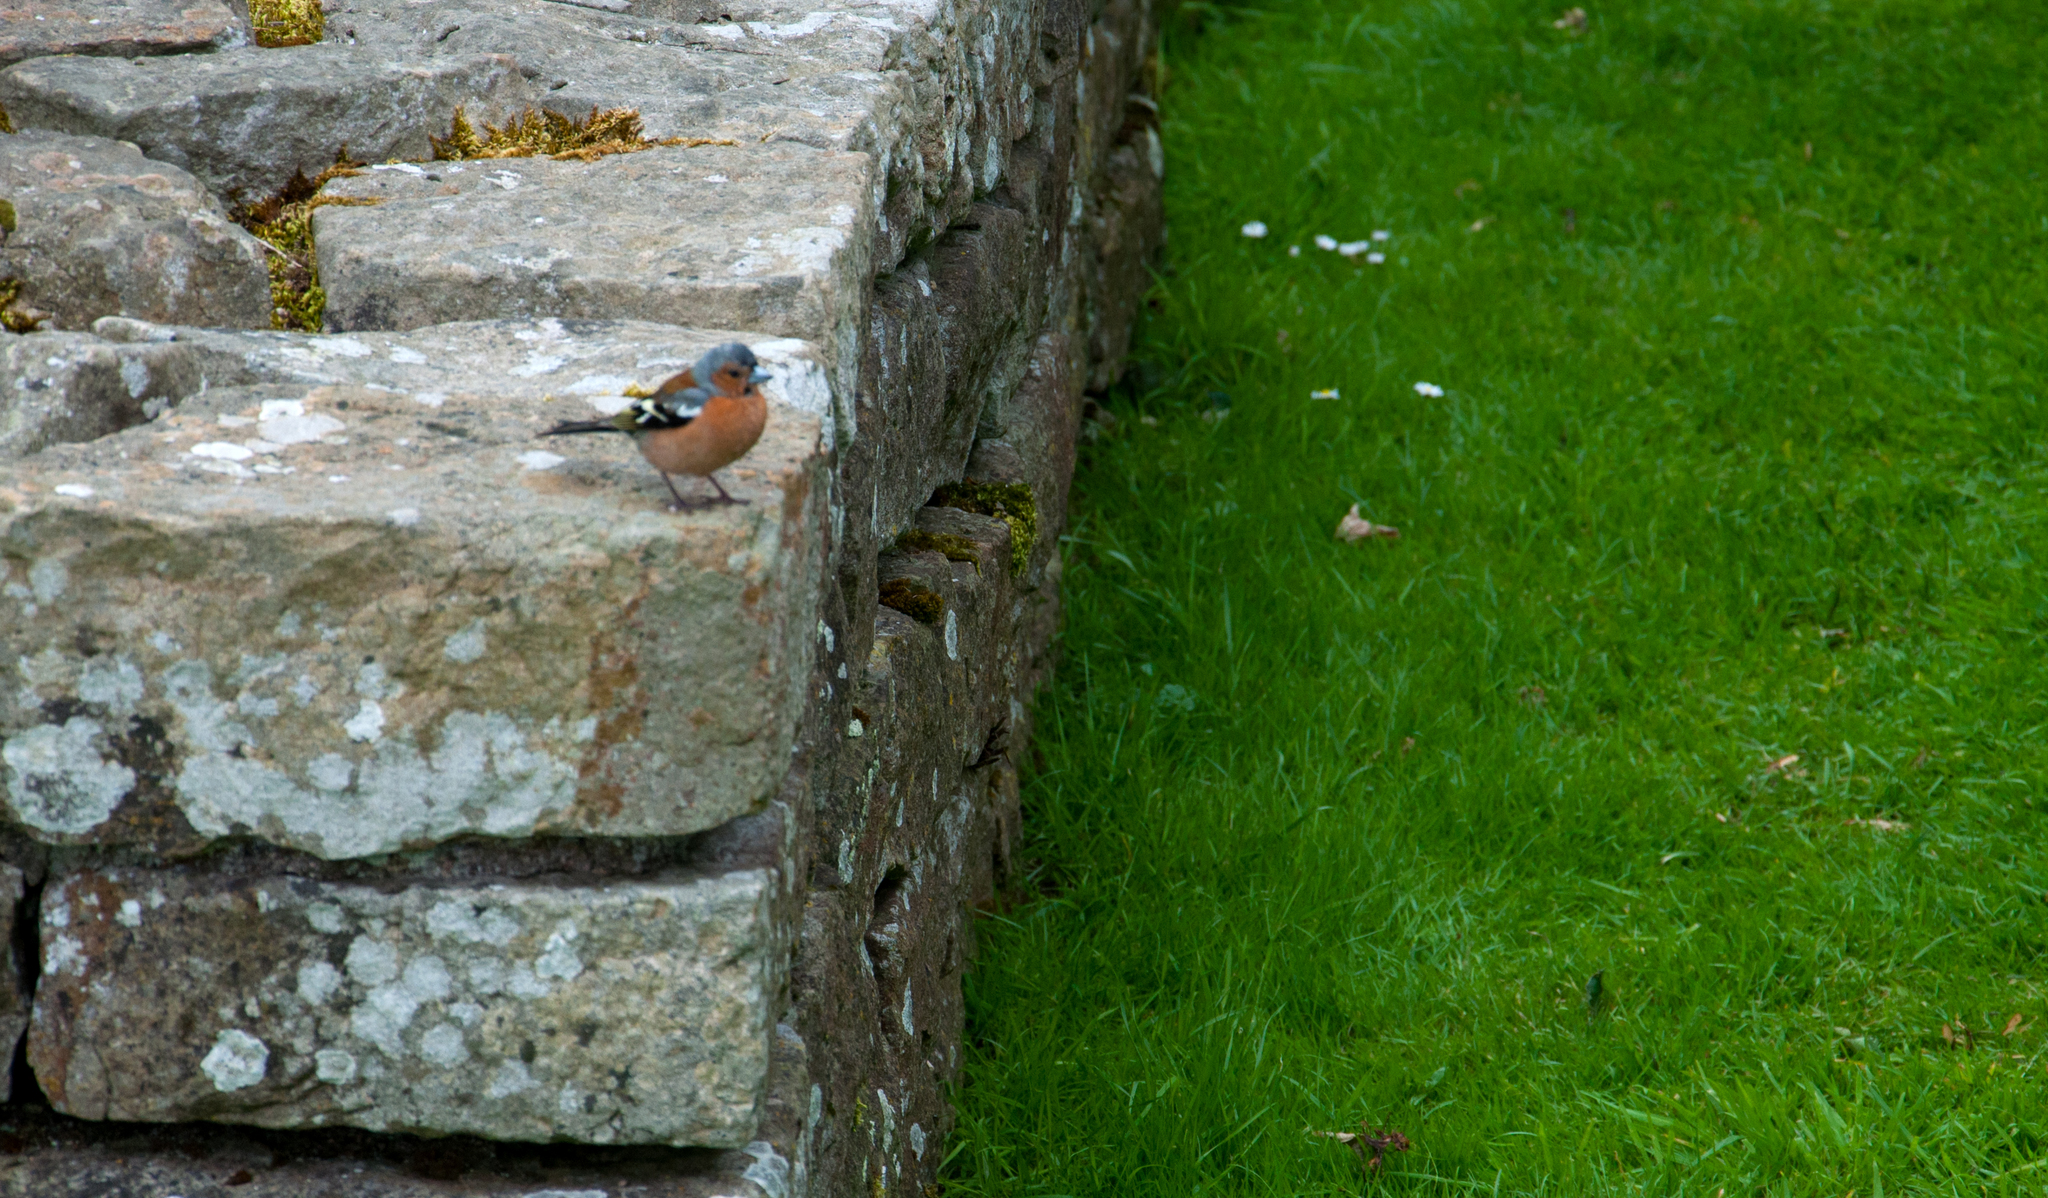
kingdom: Animalia
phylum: Chordata
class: Aves
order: Passeriformes
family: Fringillidae
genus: Fringilla
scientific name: Fringilla coelebs
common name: Common chaffinch
